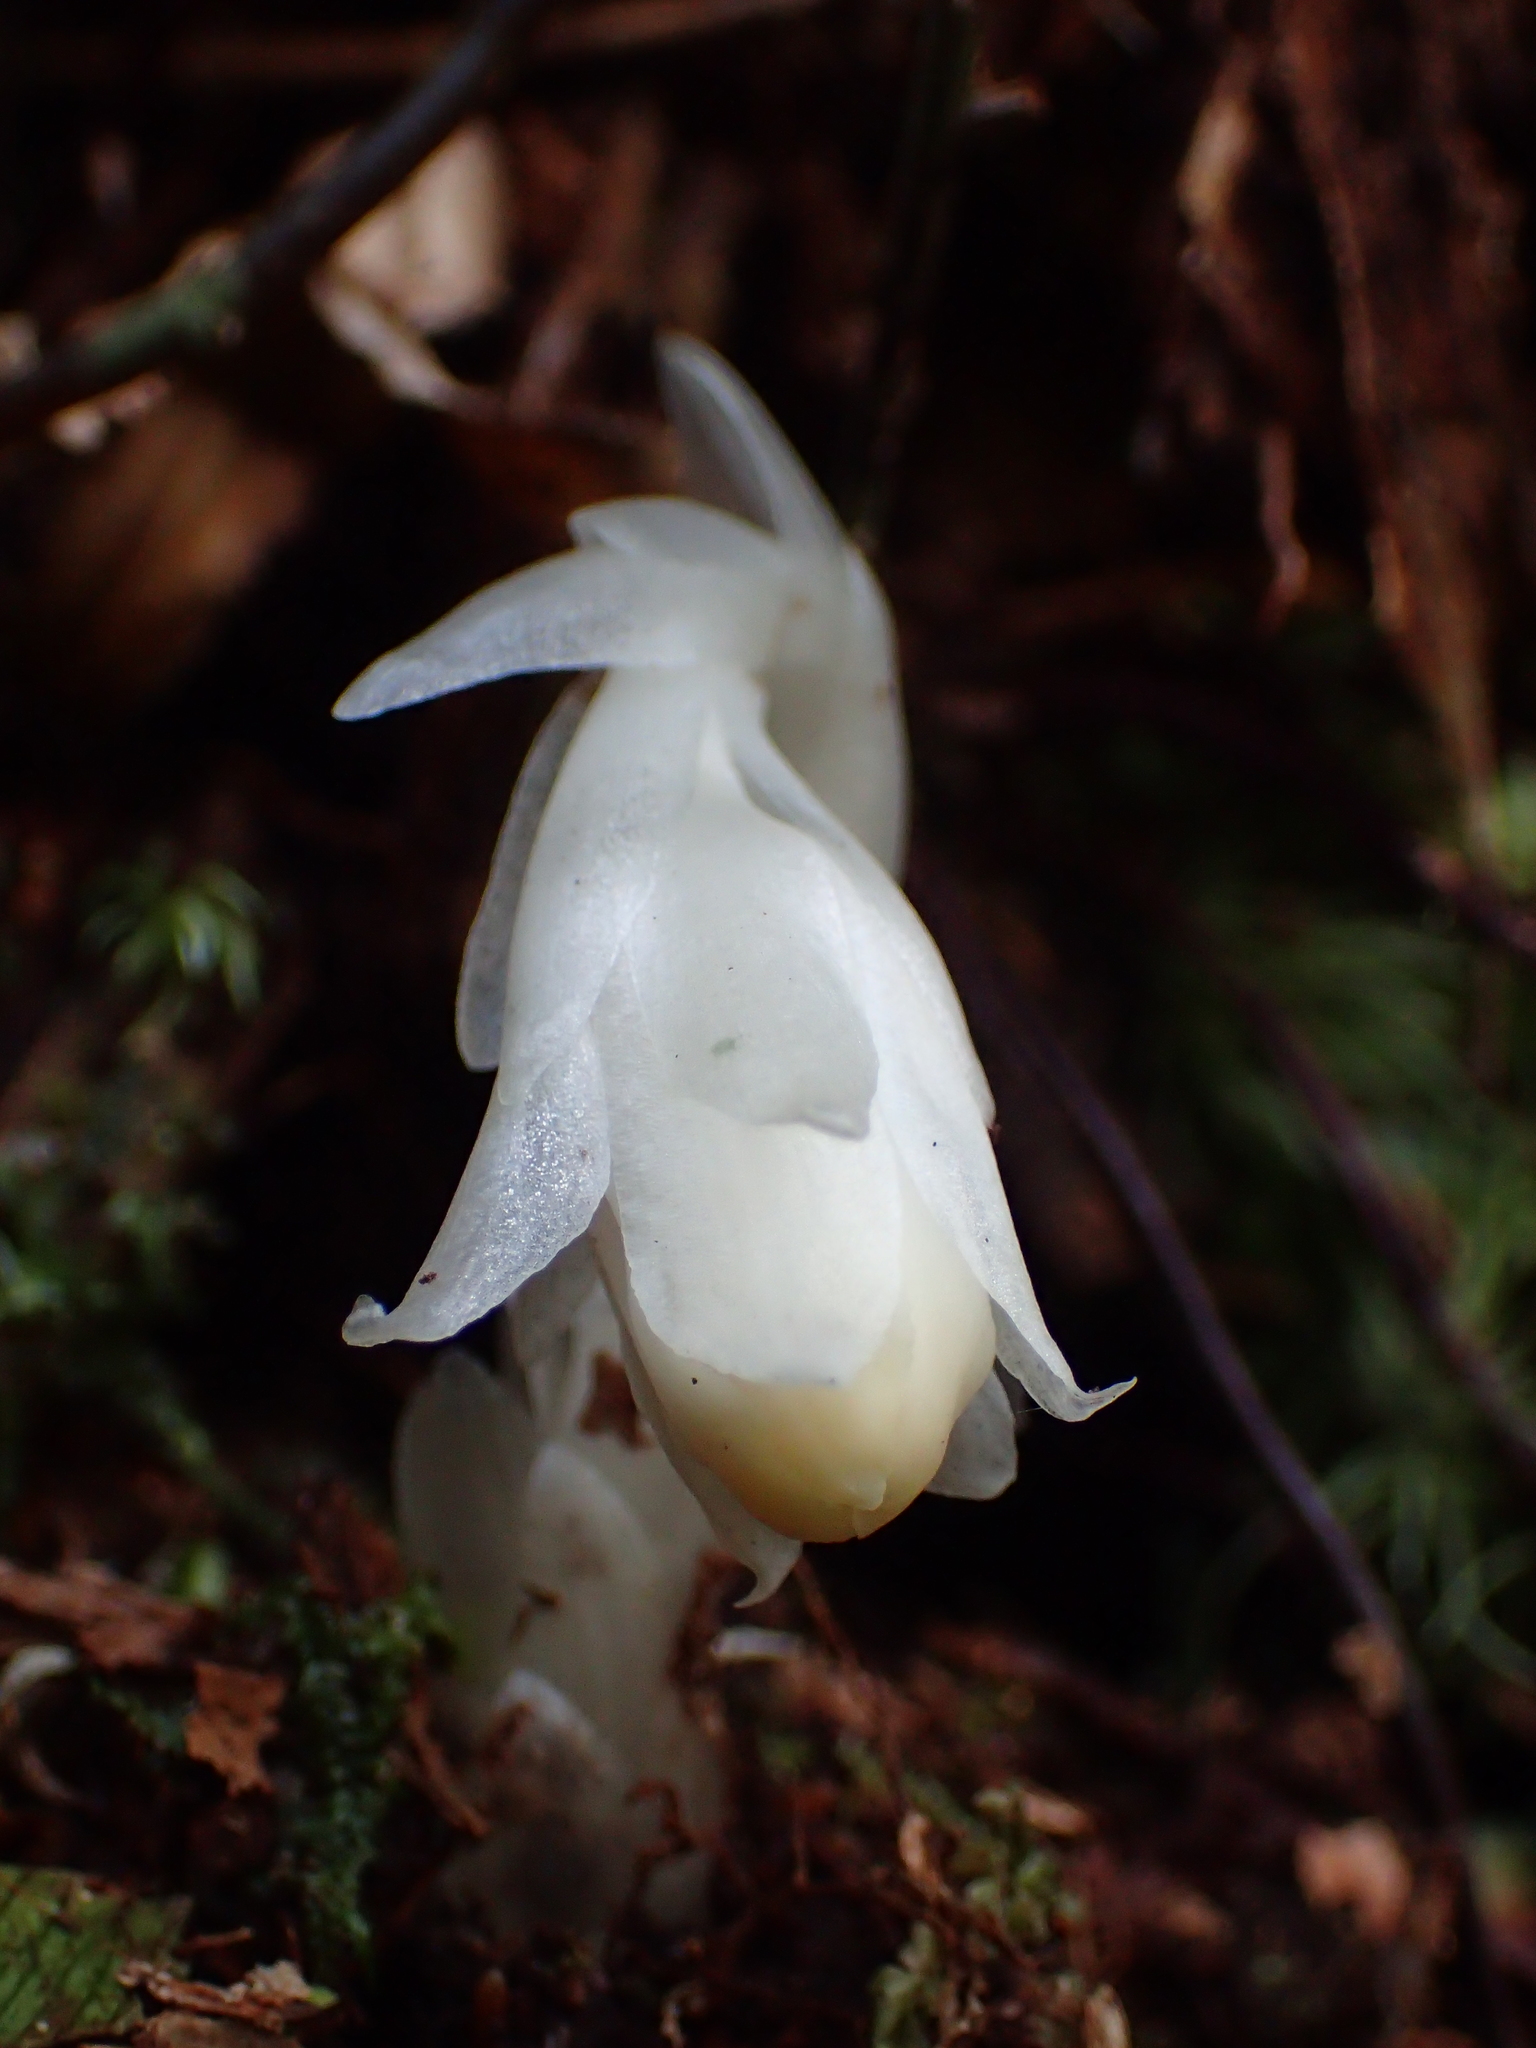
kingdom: Plantae
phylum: Tracheophyta
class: Magnoliopsida
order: Ericales
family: Ericaceae
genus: Monotropastrum
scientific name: Monotropastrum humile
